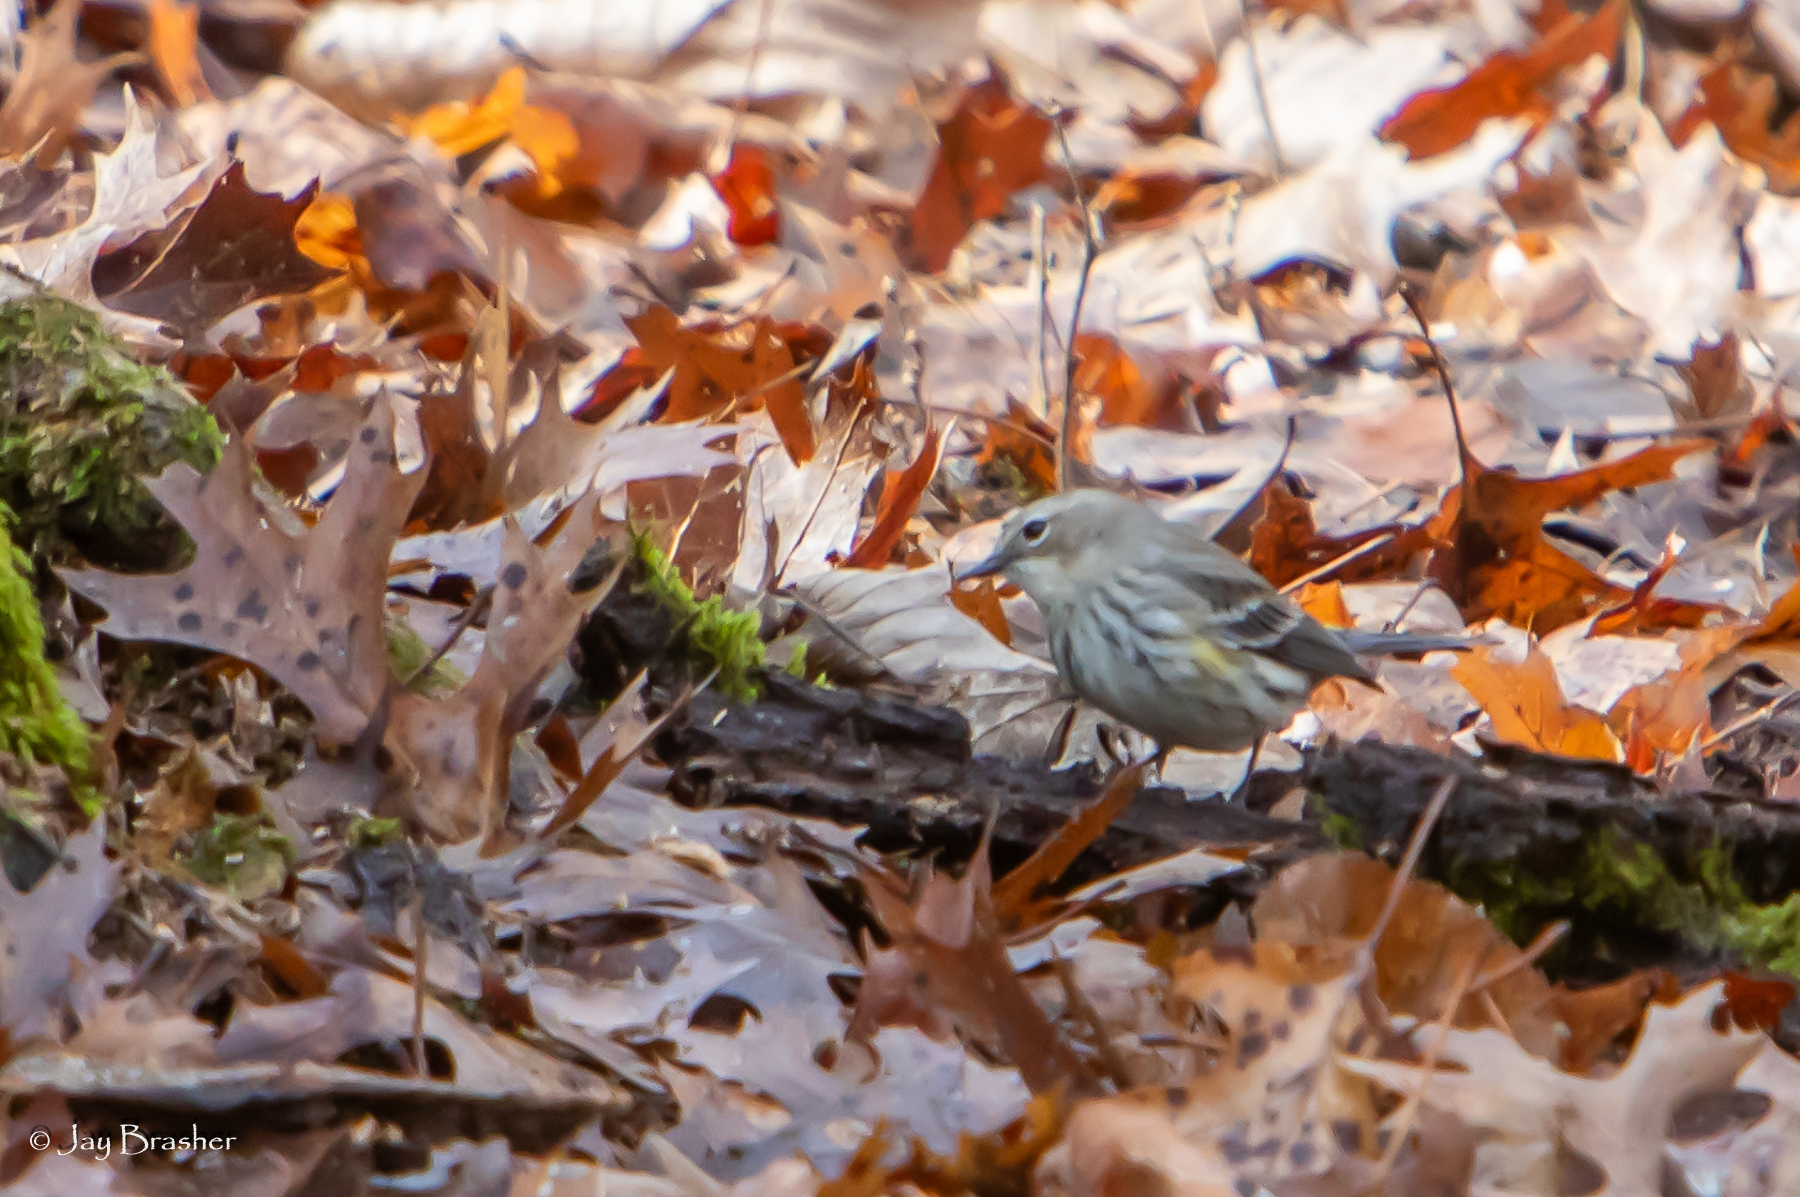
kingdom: Animalia
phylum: Chordata
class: Aves
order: Passeriformes
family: Parulidae
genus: Setophaga
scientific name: Setophaga coronata
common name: Myrtle warbler
